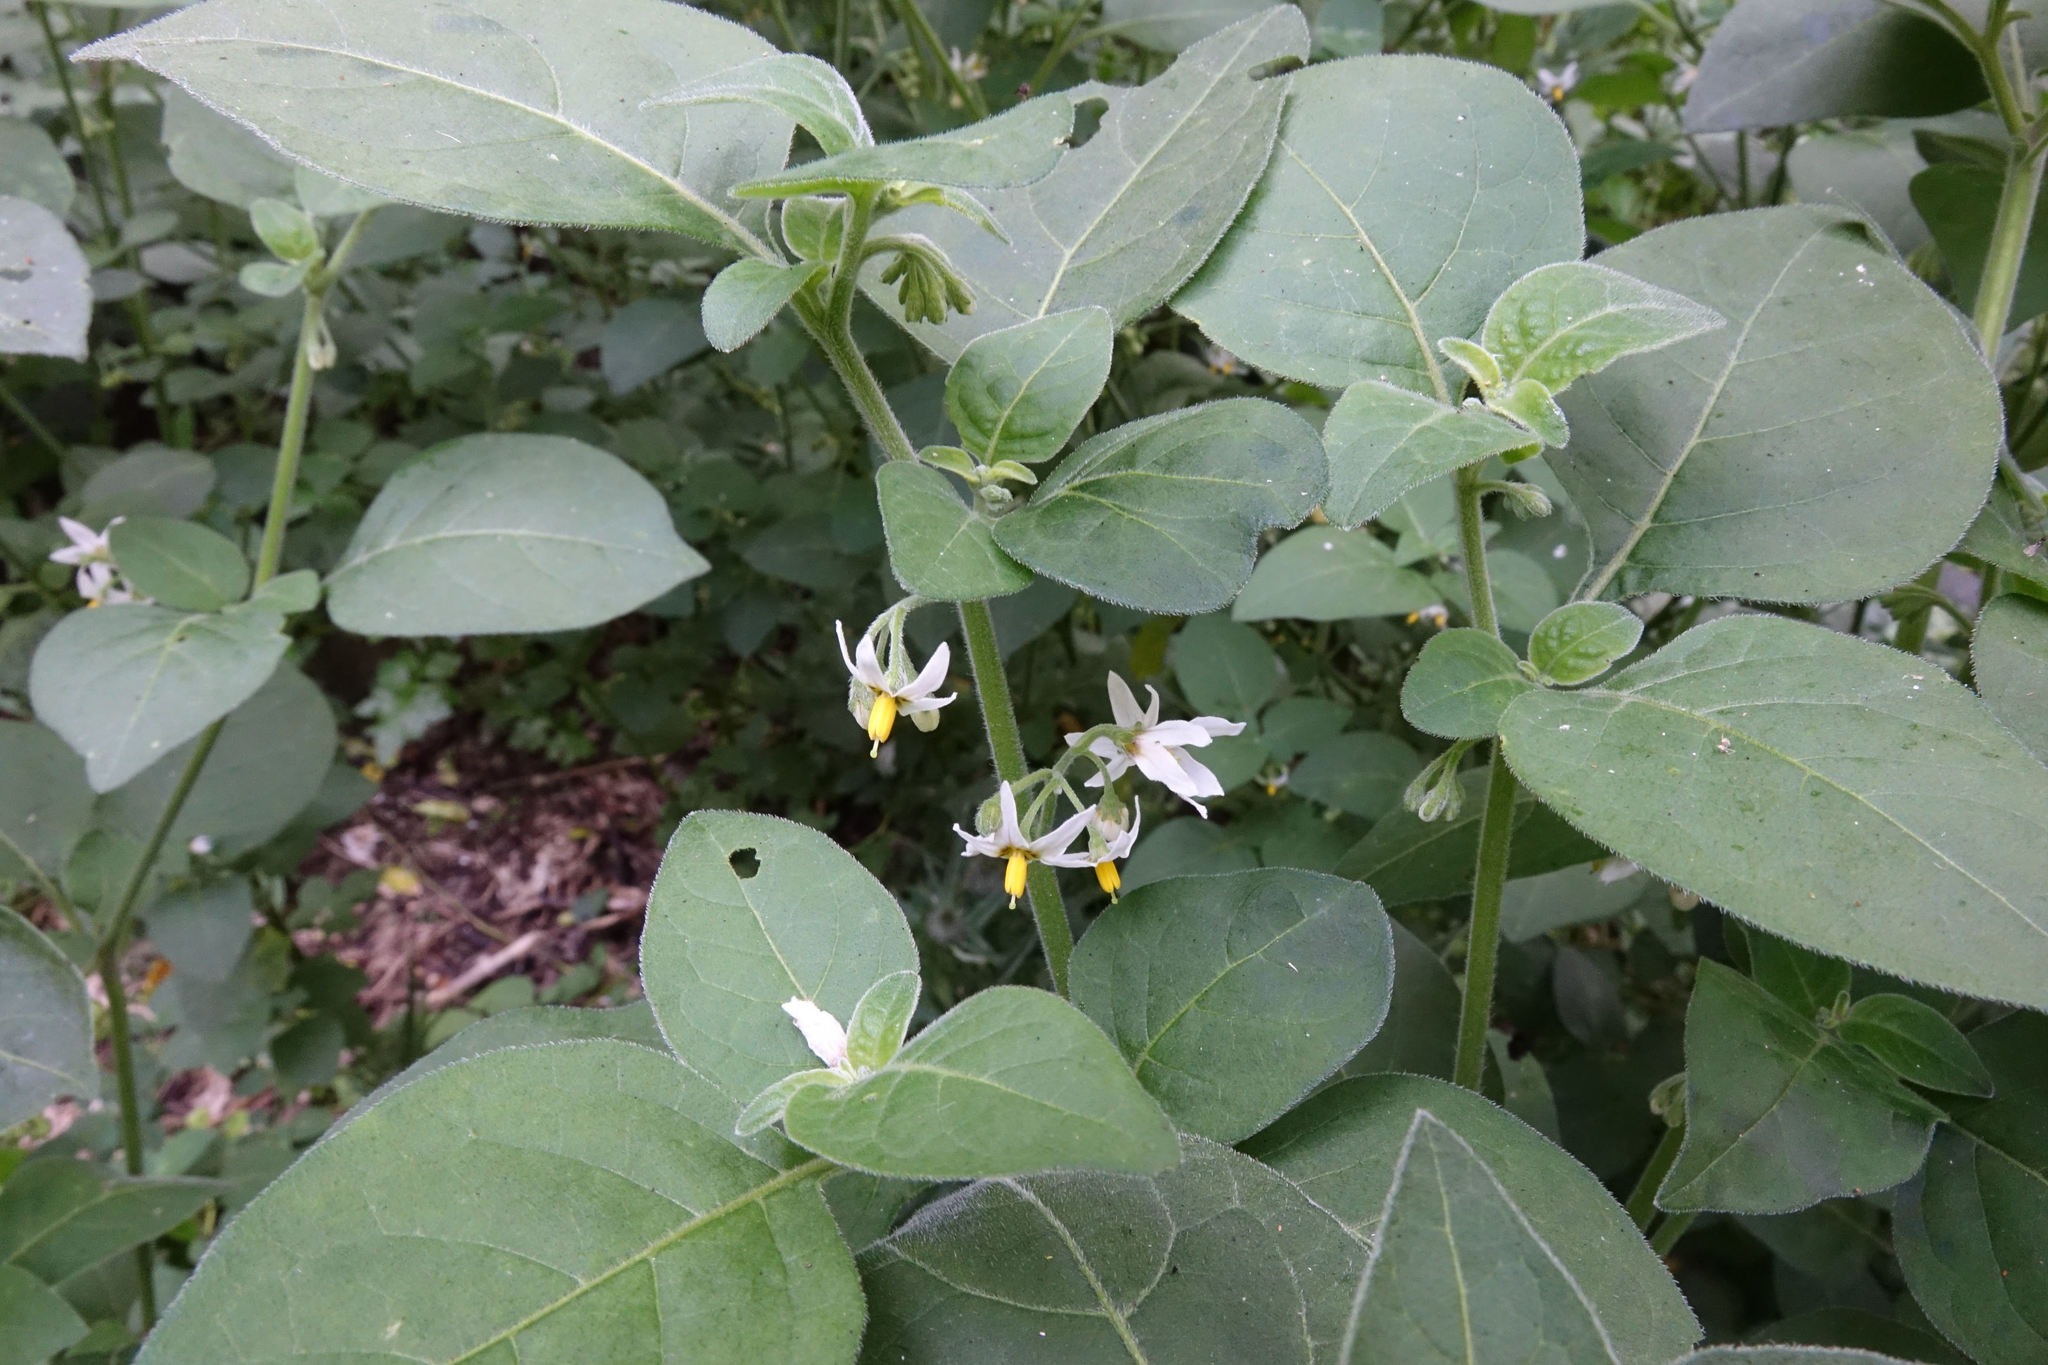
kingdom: Plantae
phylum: Tracheophyta
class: Magnoliopsida
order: Solanales
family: Solanaceae
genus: Solanum
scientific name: Solanum chenopodioides
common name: Tall nightshade
